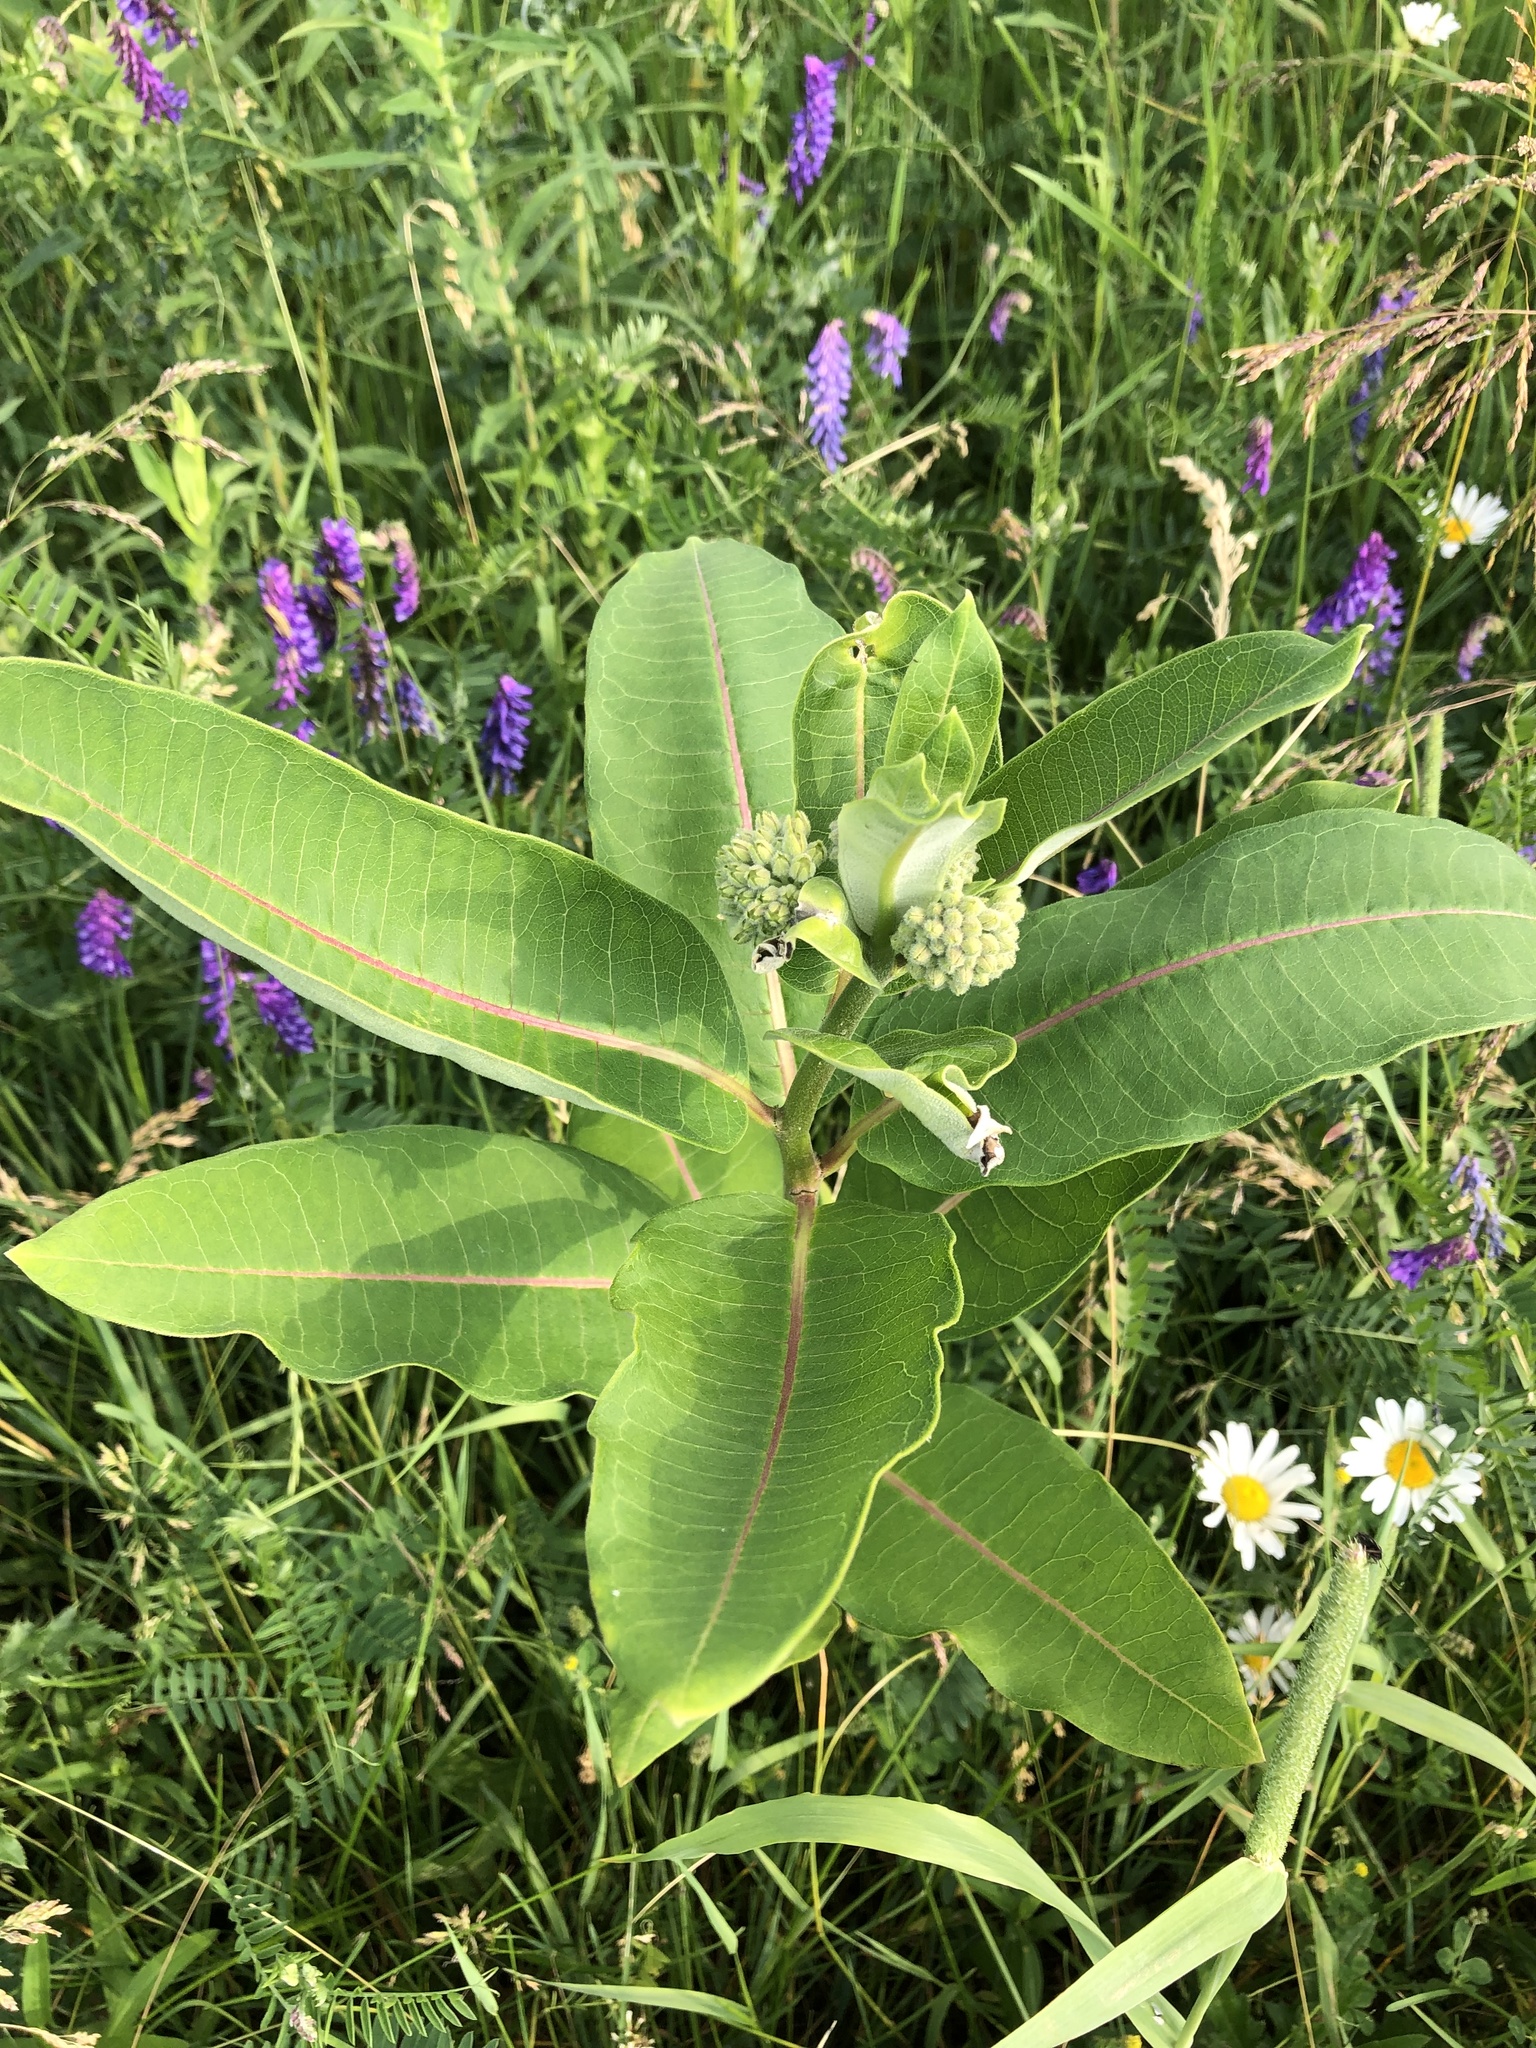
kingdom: Plantae
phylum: Tracheophyta
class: Magnoliopsida
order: Gentianales
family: Apocynaceae
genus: Asclepias
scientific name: Asclepias syriaca
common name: Common milkweed
